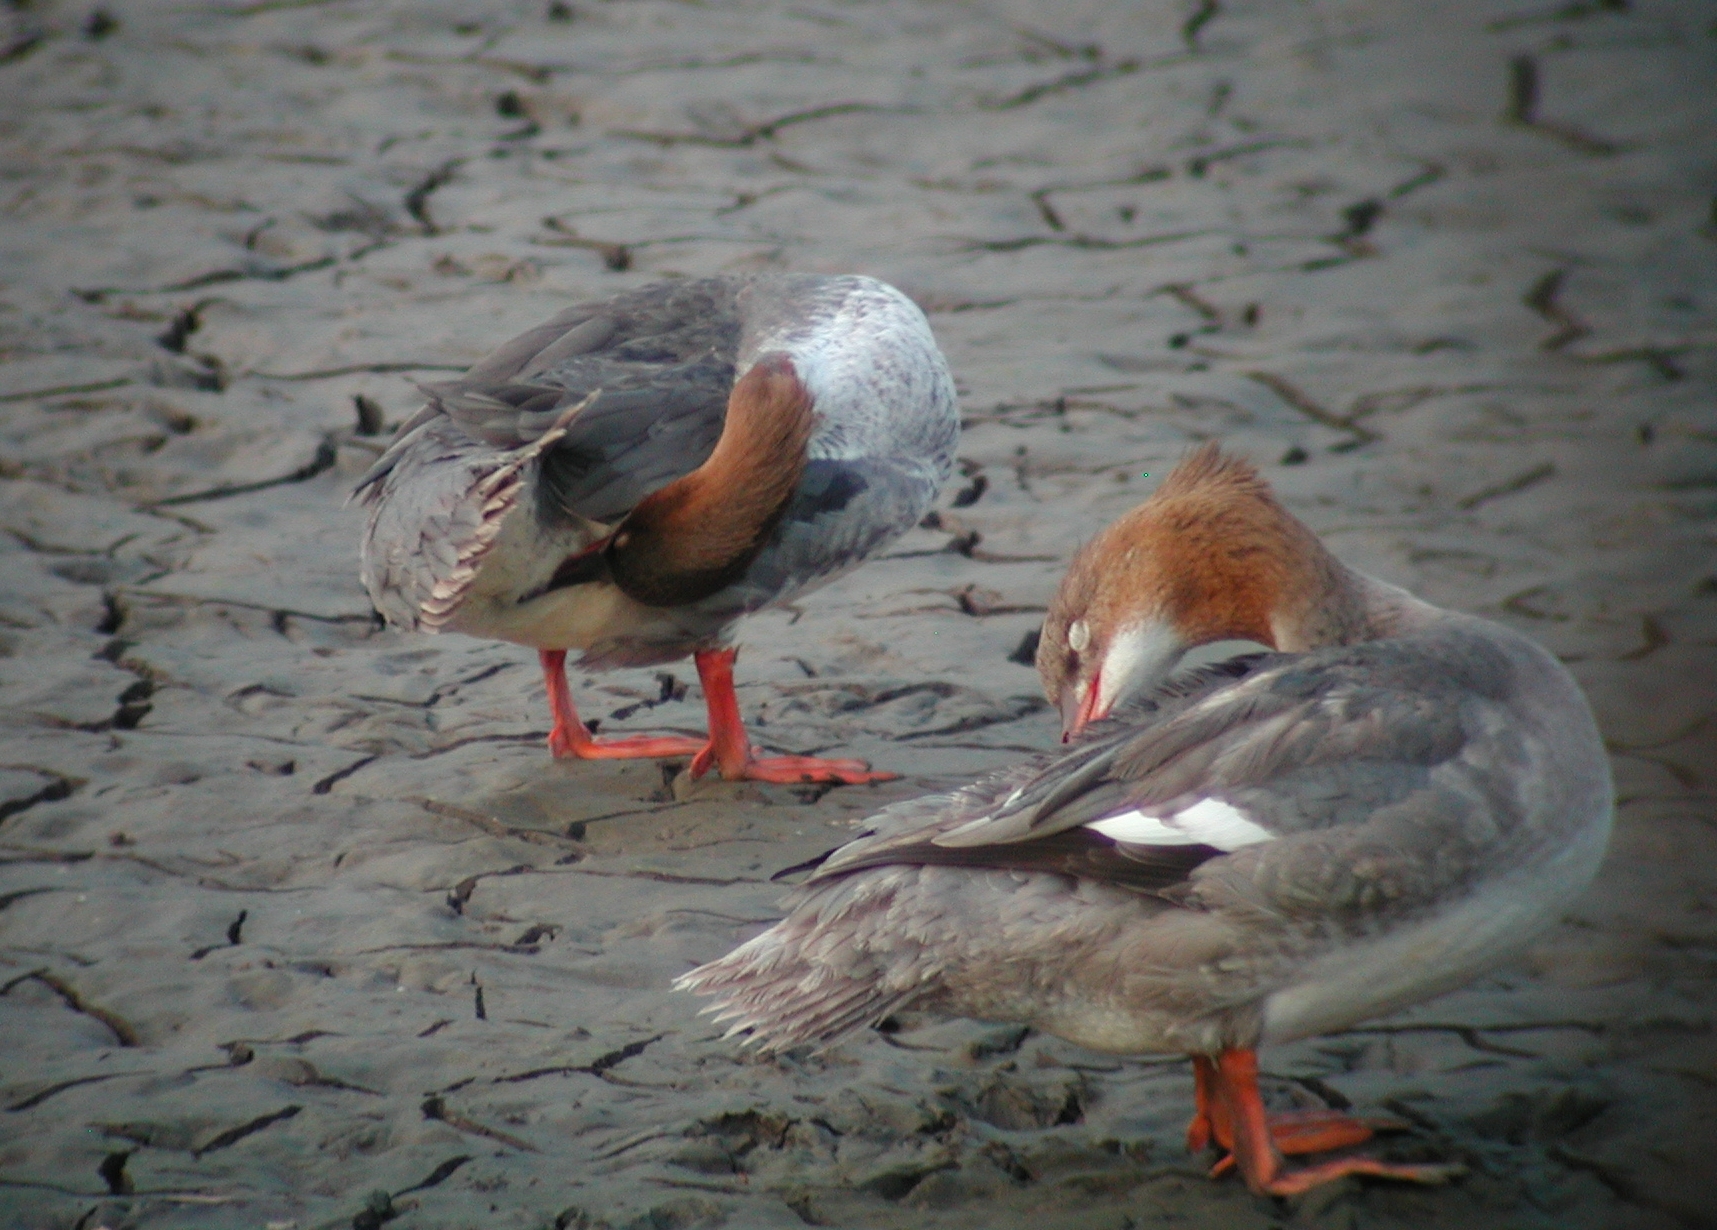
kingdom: Animalia
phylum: Chordata
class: Aves
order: Anseriformes
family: Anatidae
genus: Mergus
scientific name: Mergus merganser
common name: Common merganser
